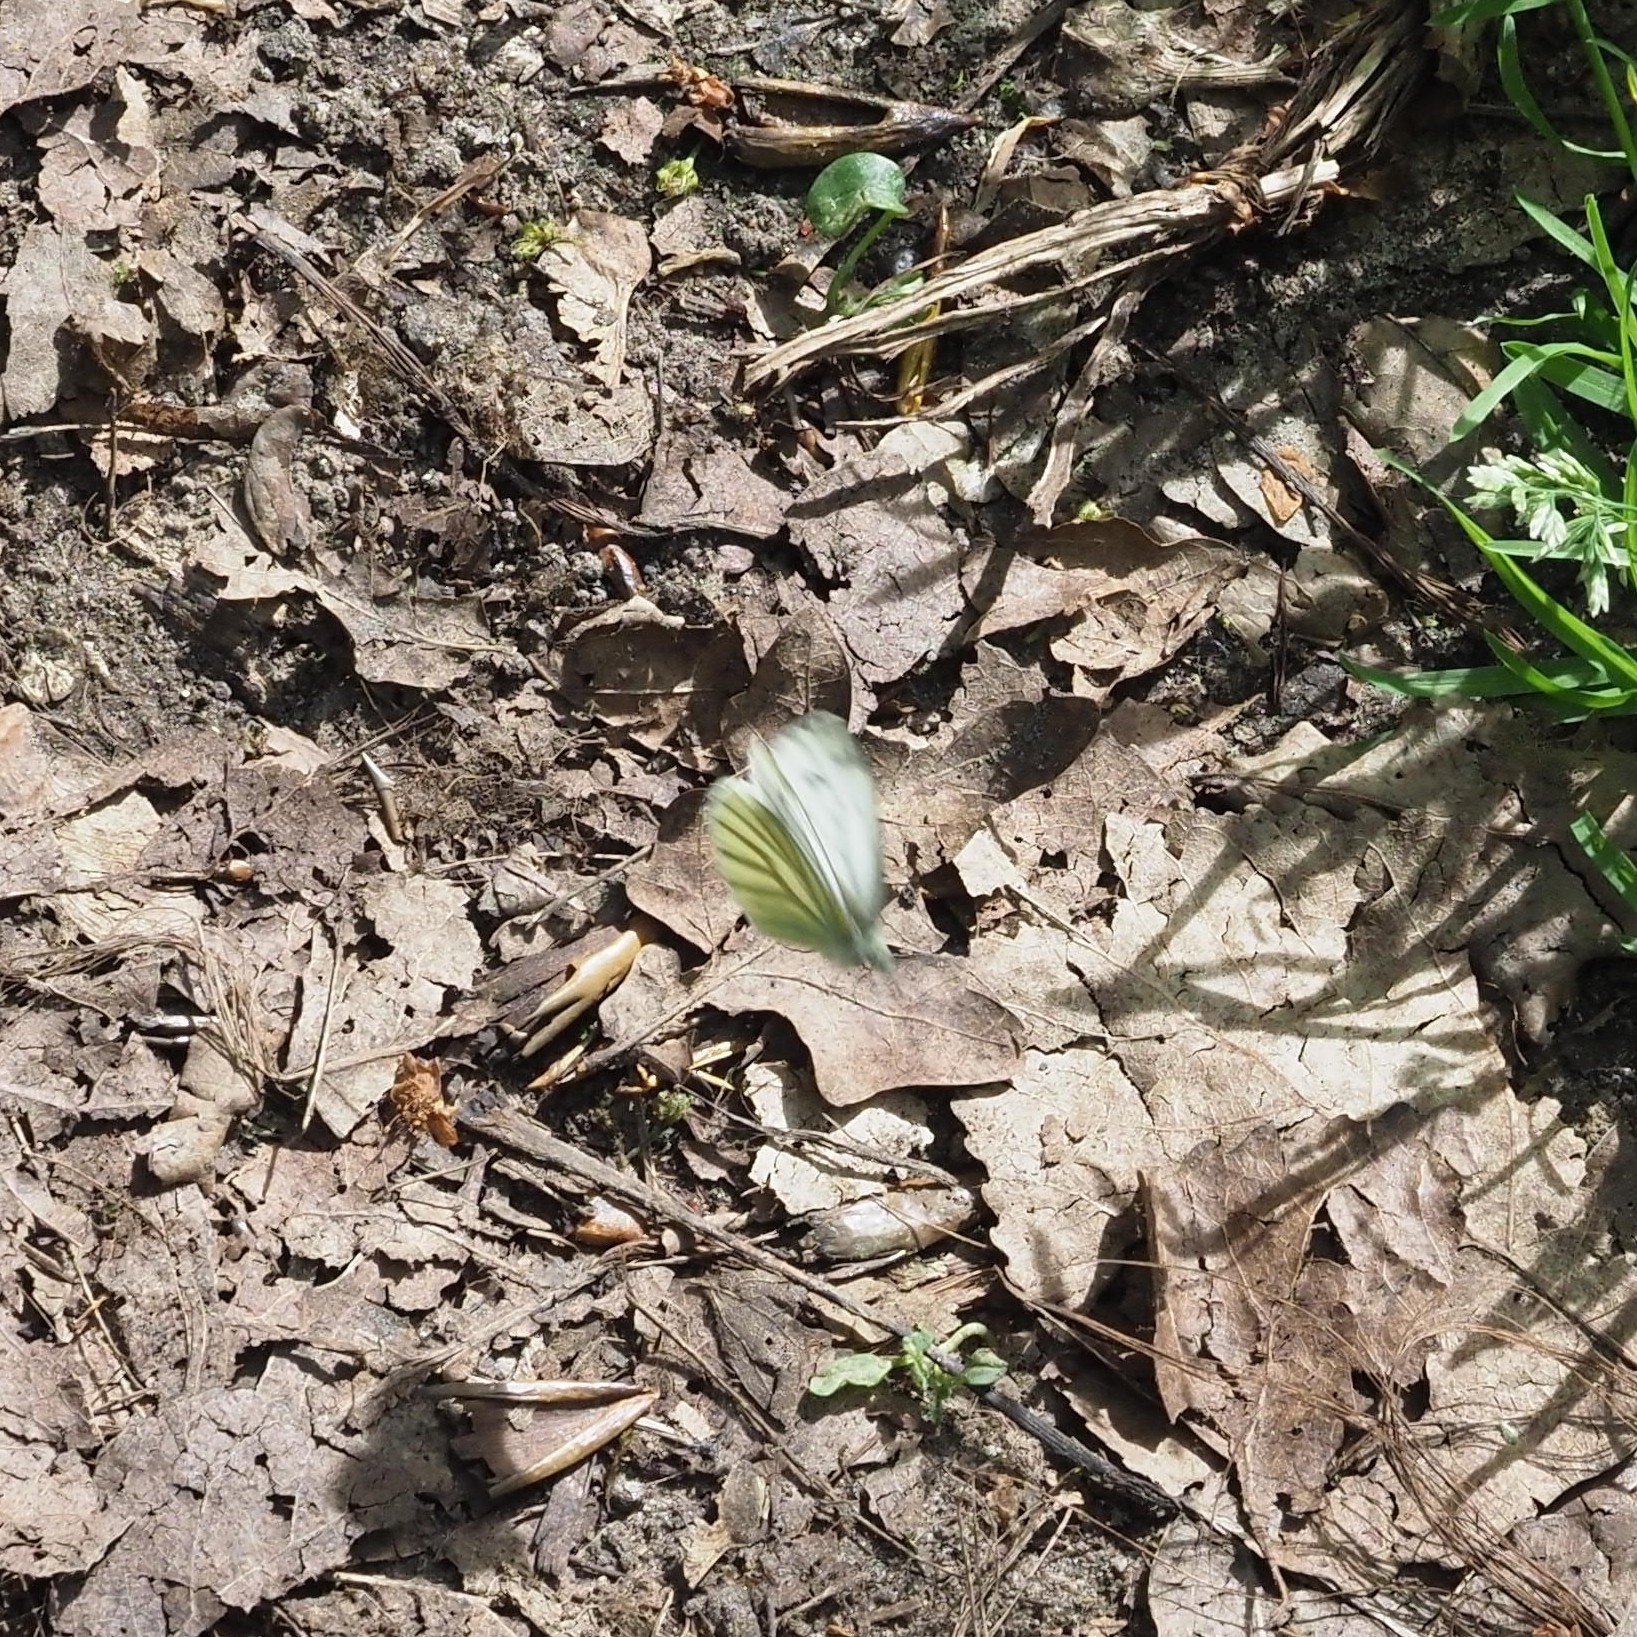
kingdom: Animalia
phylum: Arthropoda
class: Insecta
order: Lepidoptera
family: Pieridae
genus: Pieris
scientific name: Pieris napi
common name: Green-veined white
